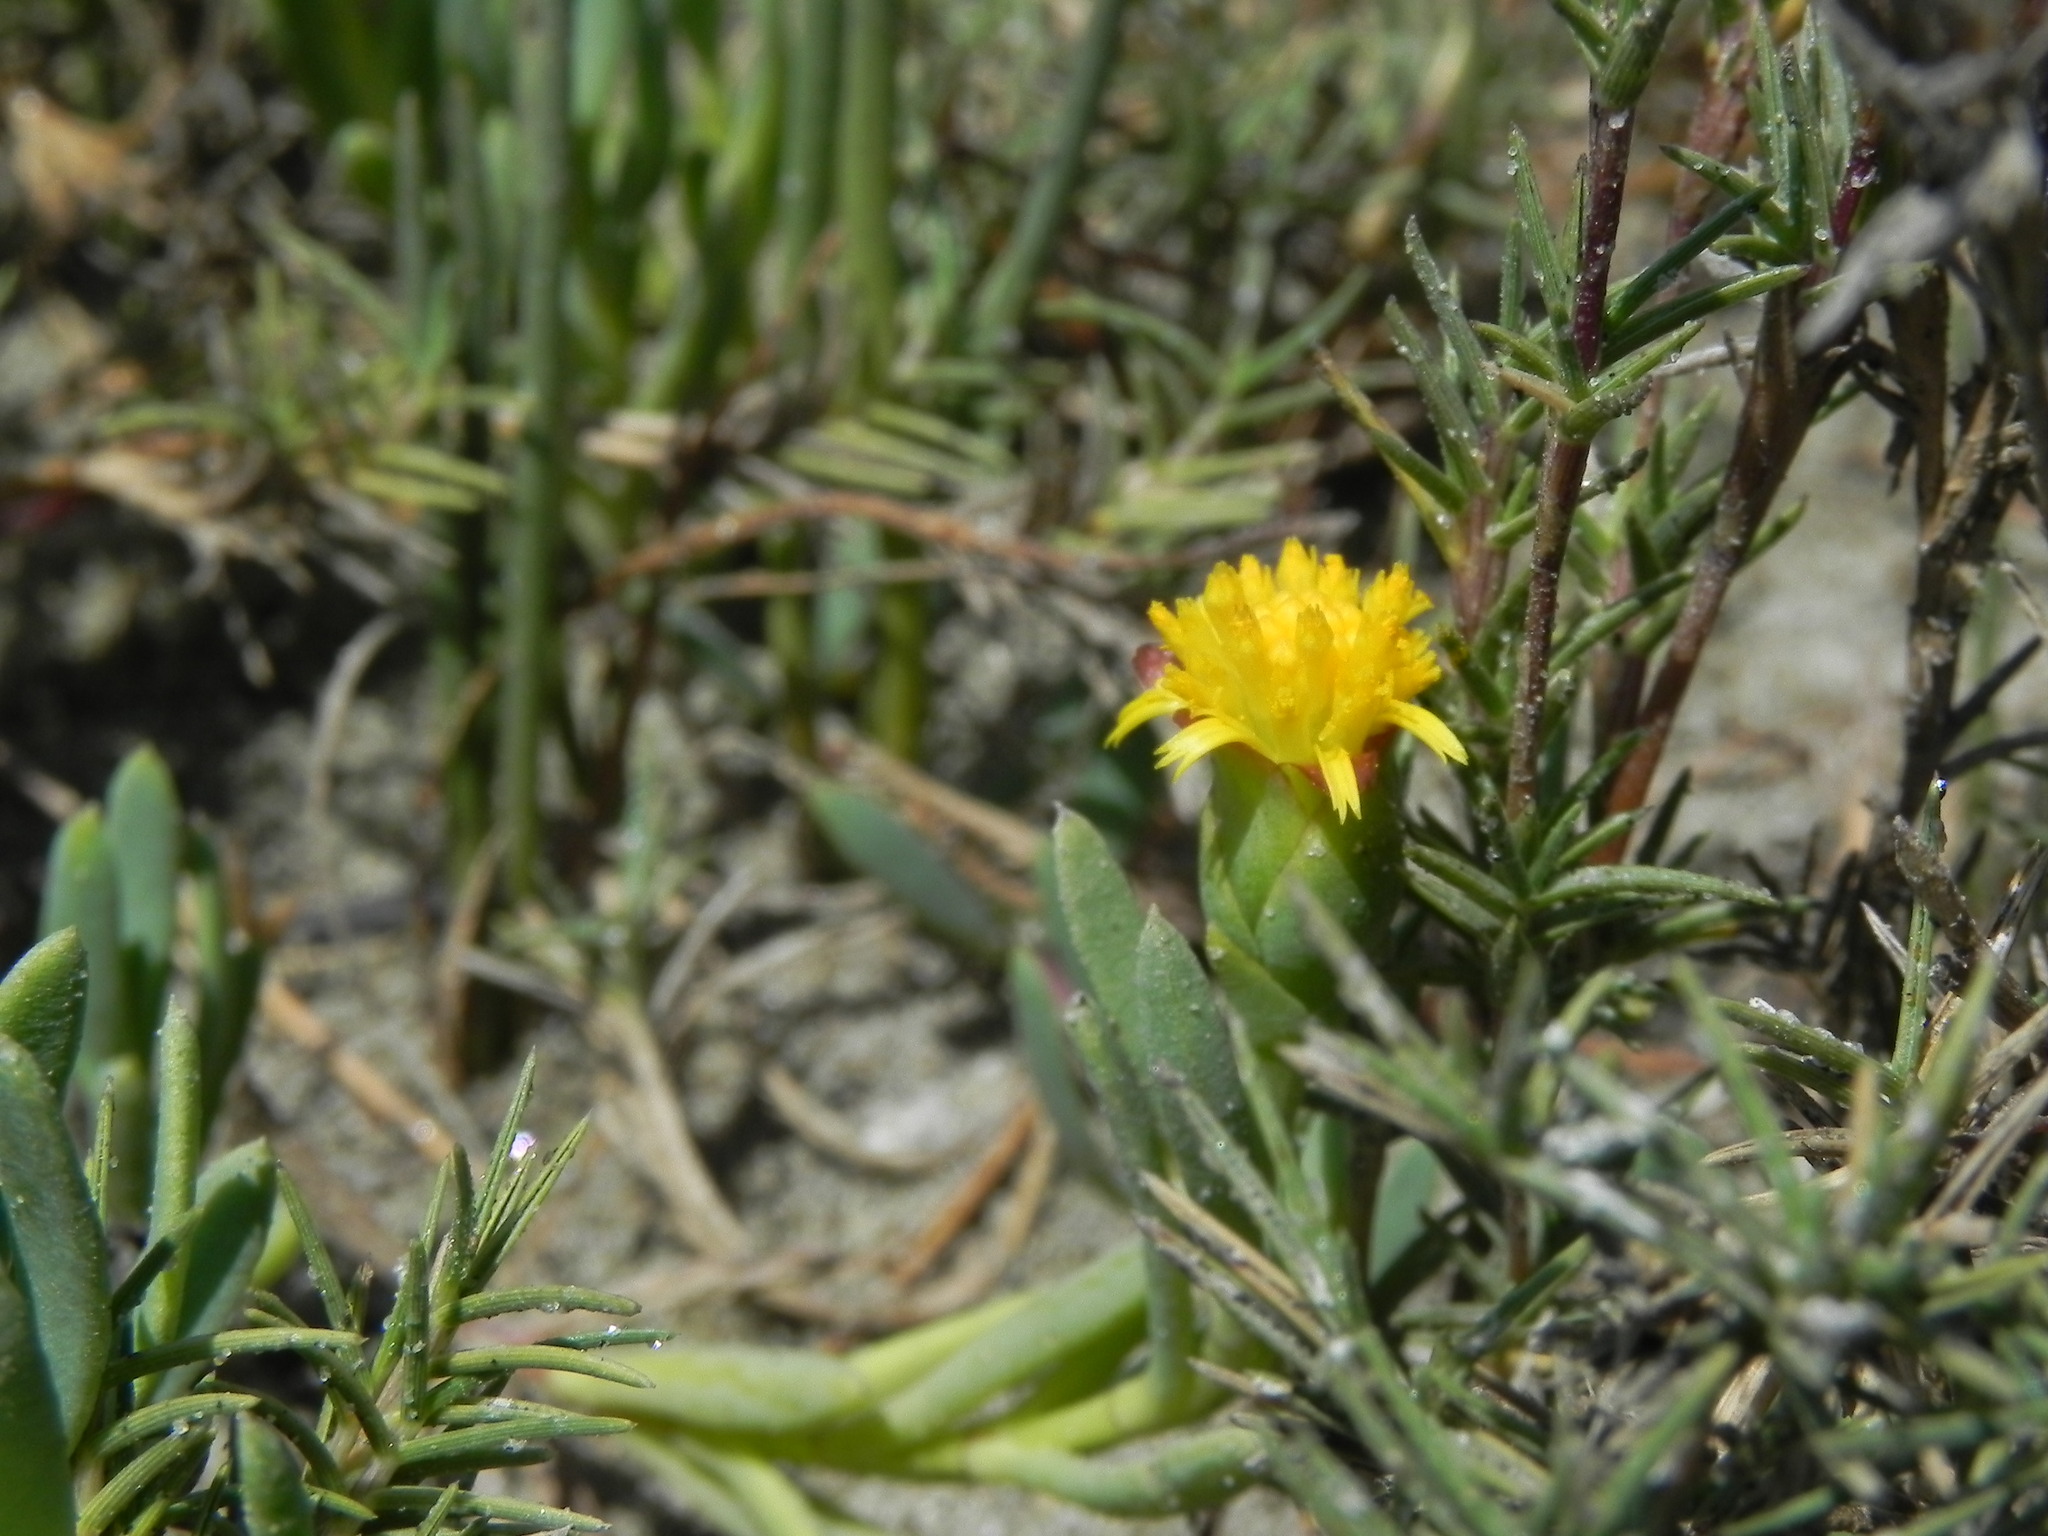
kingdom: Plantae
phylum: Tracheophyta
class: Magnoliopsida
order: Asterales
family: Asteraceae
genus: Jaumea
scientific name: Jaumea carnosa
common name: Fleshy jaumea
